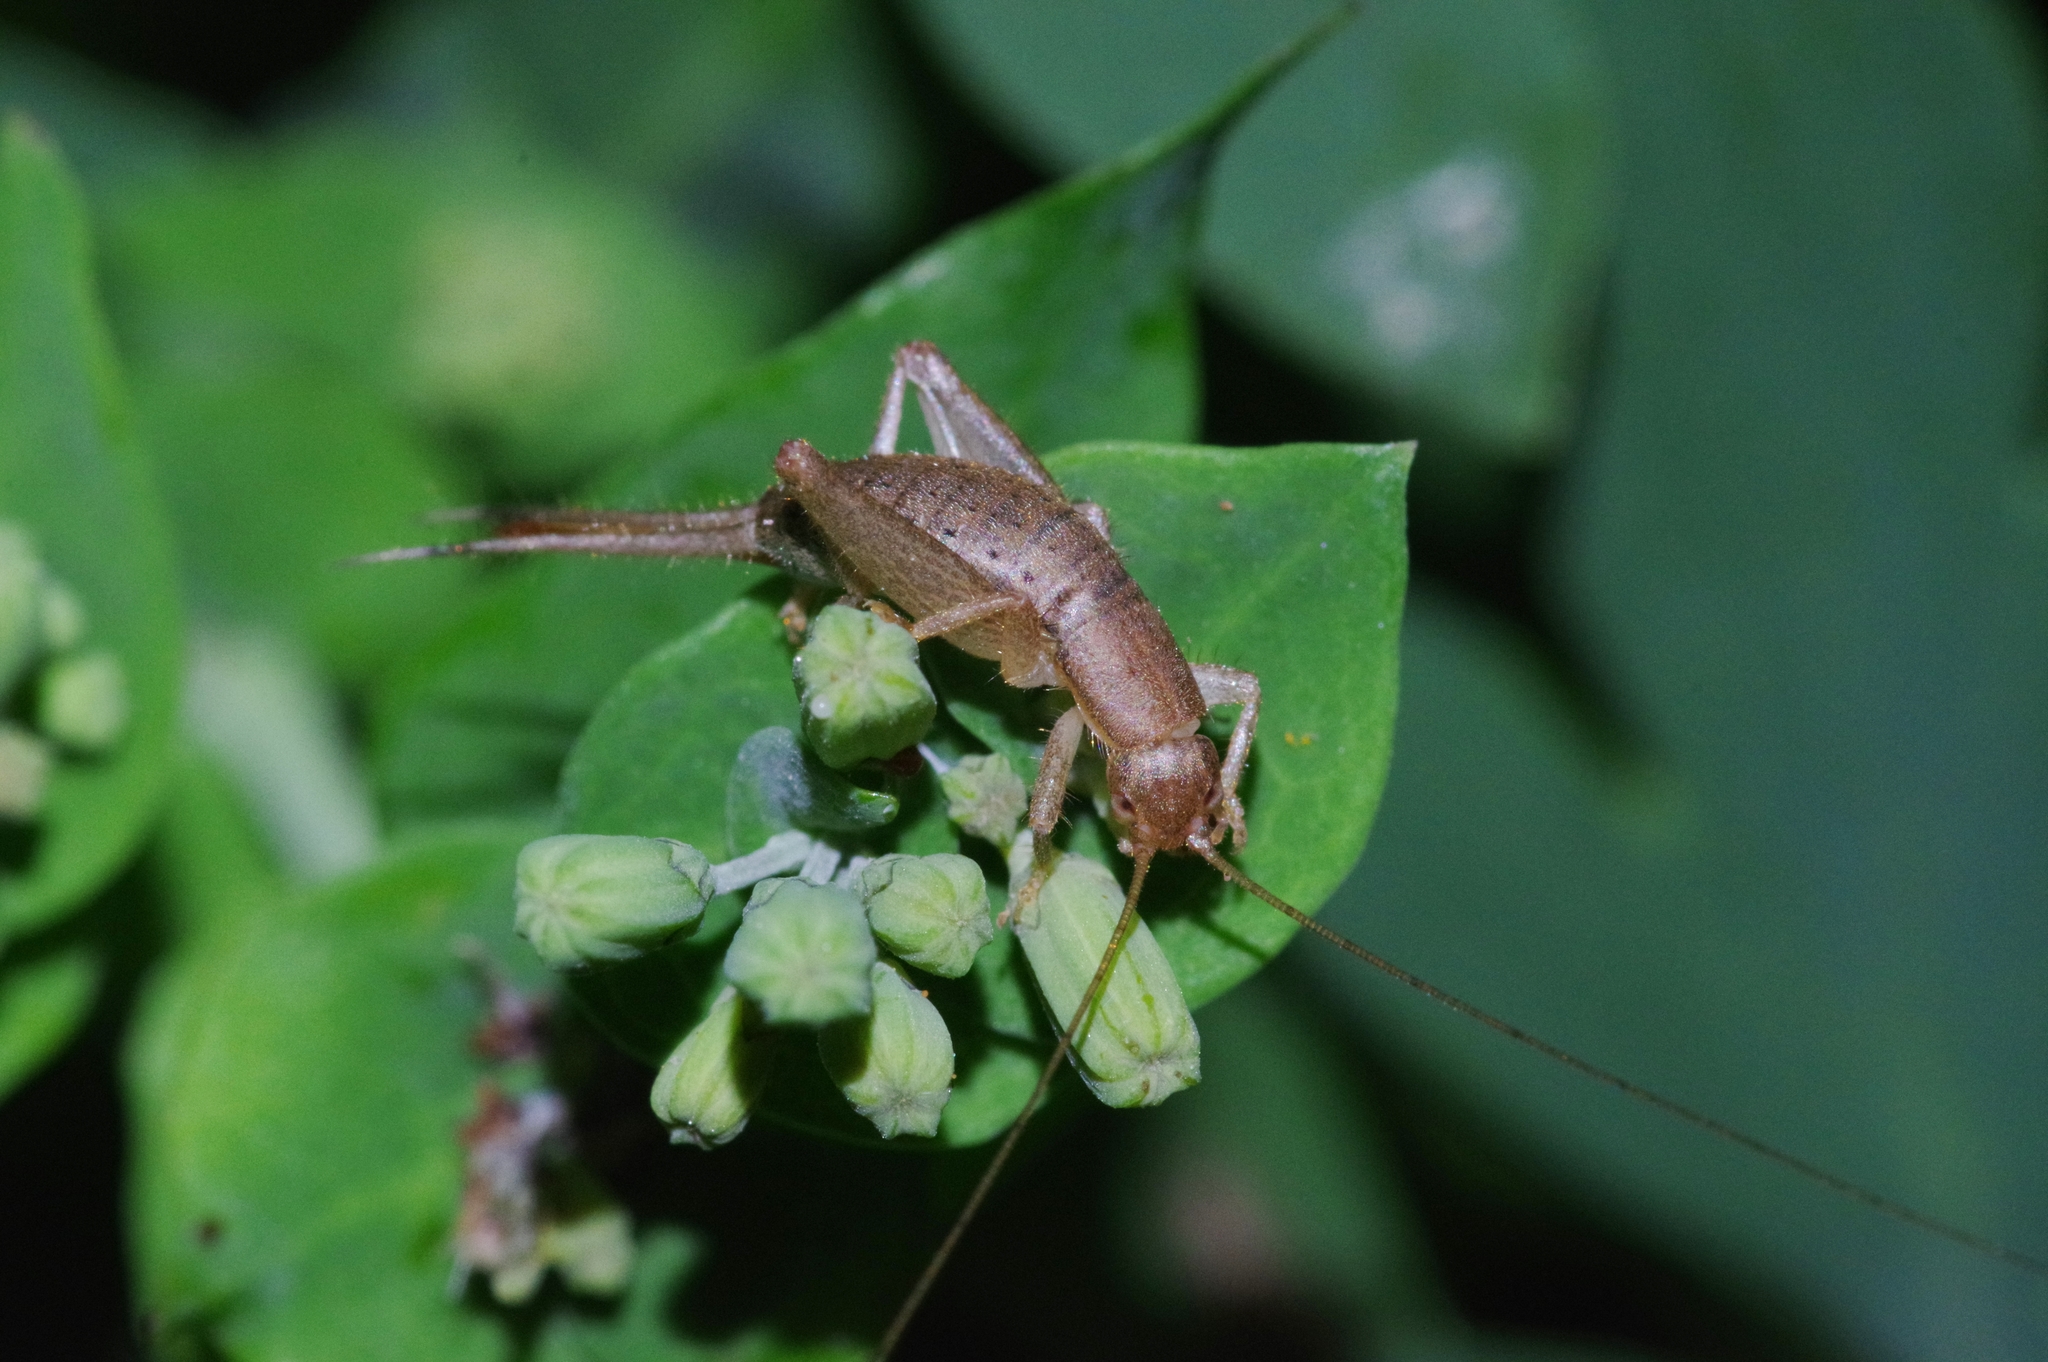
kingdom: Animalia
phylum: Arthropoda
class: Insecta
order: Orthoptera
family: Mogoplistidae
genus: Ornebius
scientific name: Ornebius bimaculatus
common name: Cricket
